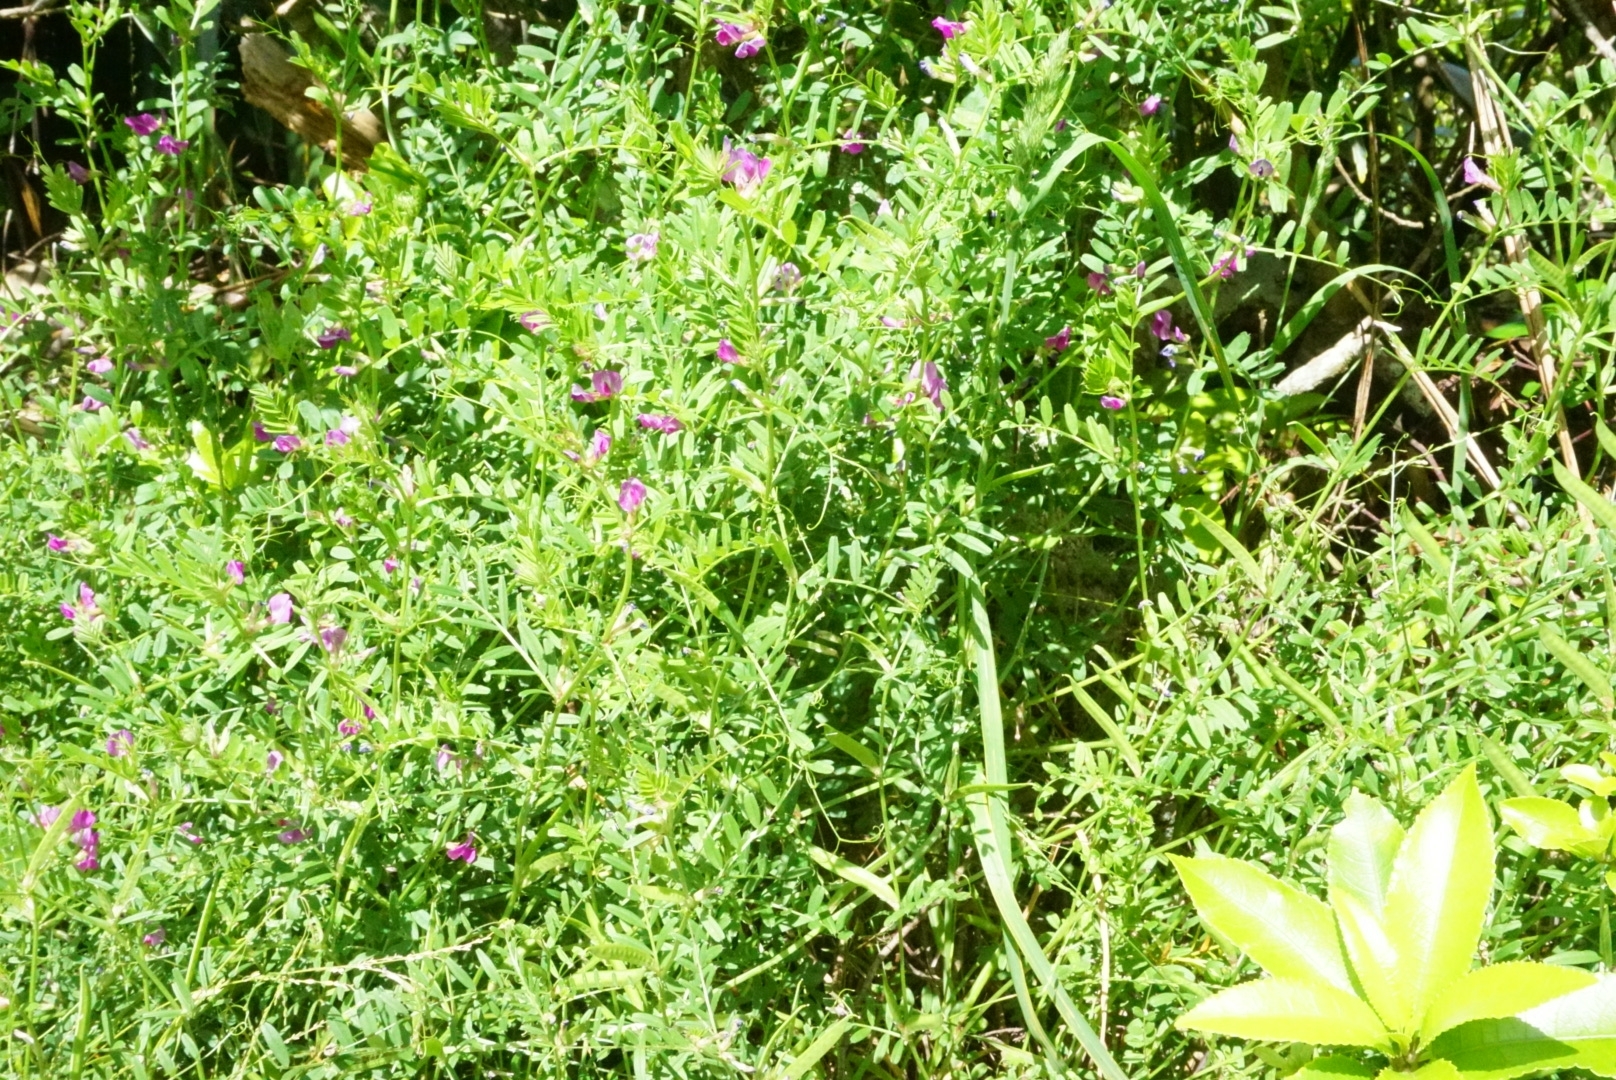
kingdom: Plantae
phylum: Tracheophyta
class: Magnoliopsida
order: Fabales
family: Fabaceae
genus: Vicia
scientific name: Vicia sativa
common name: Garden vetch
